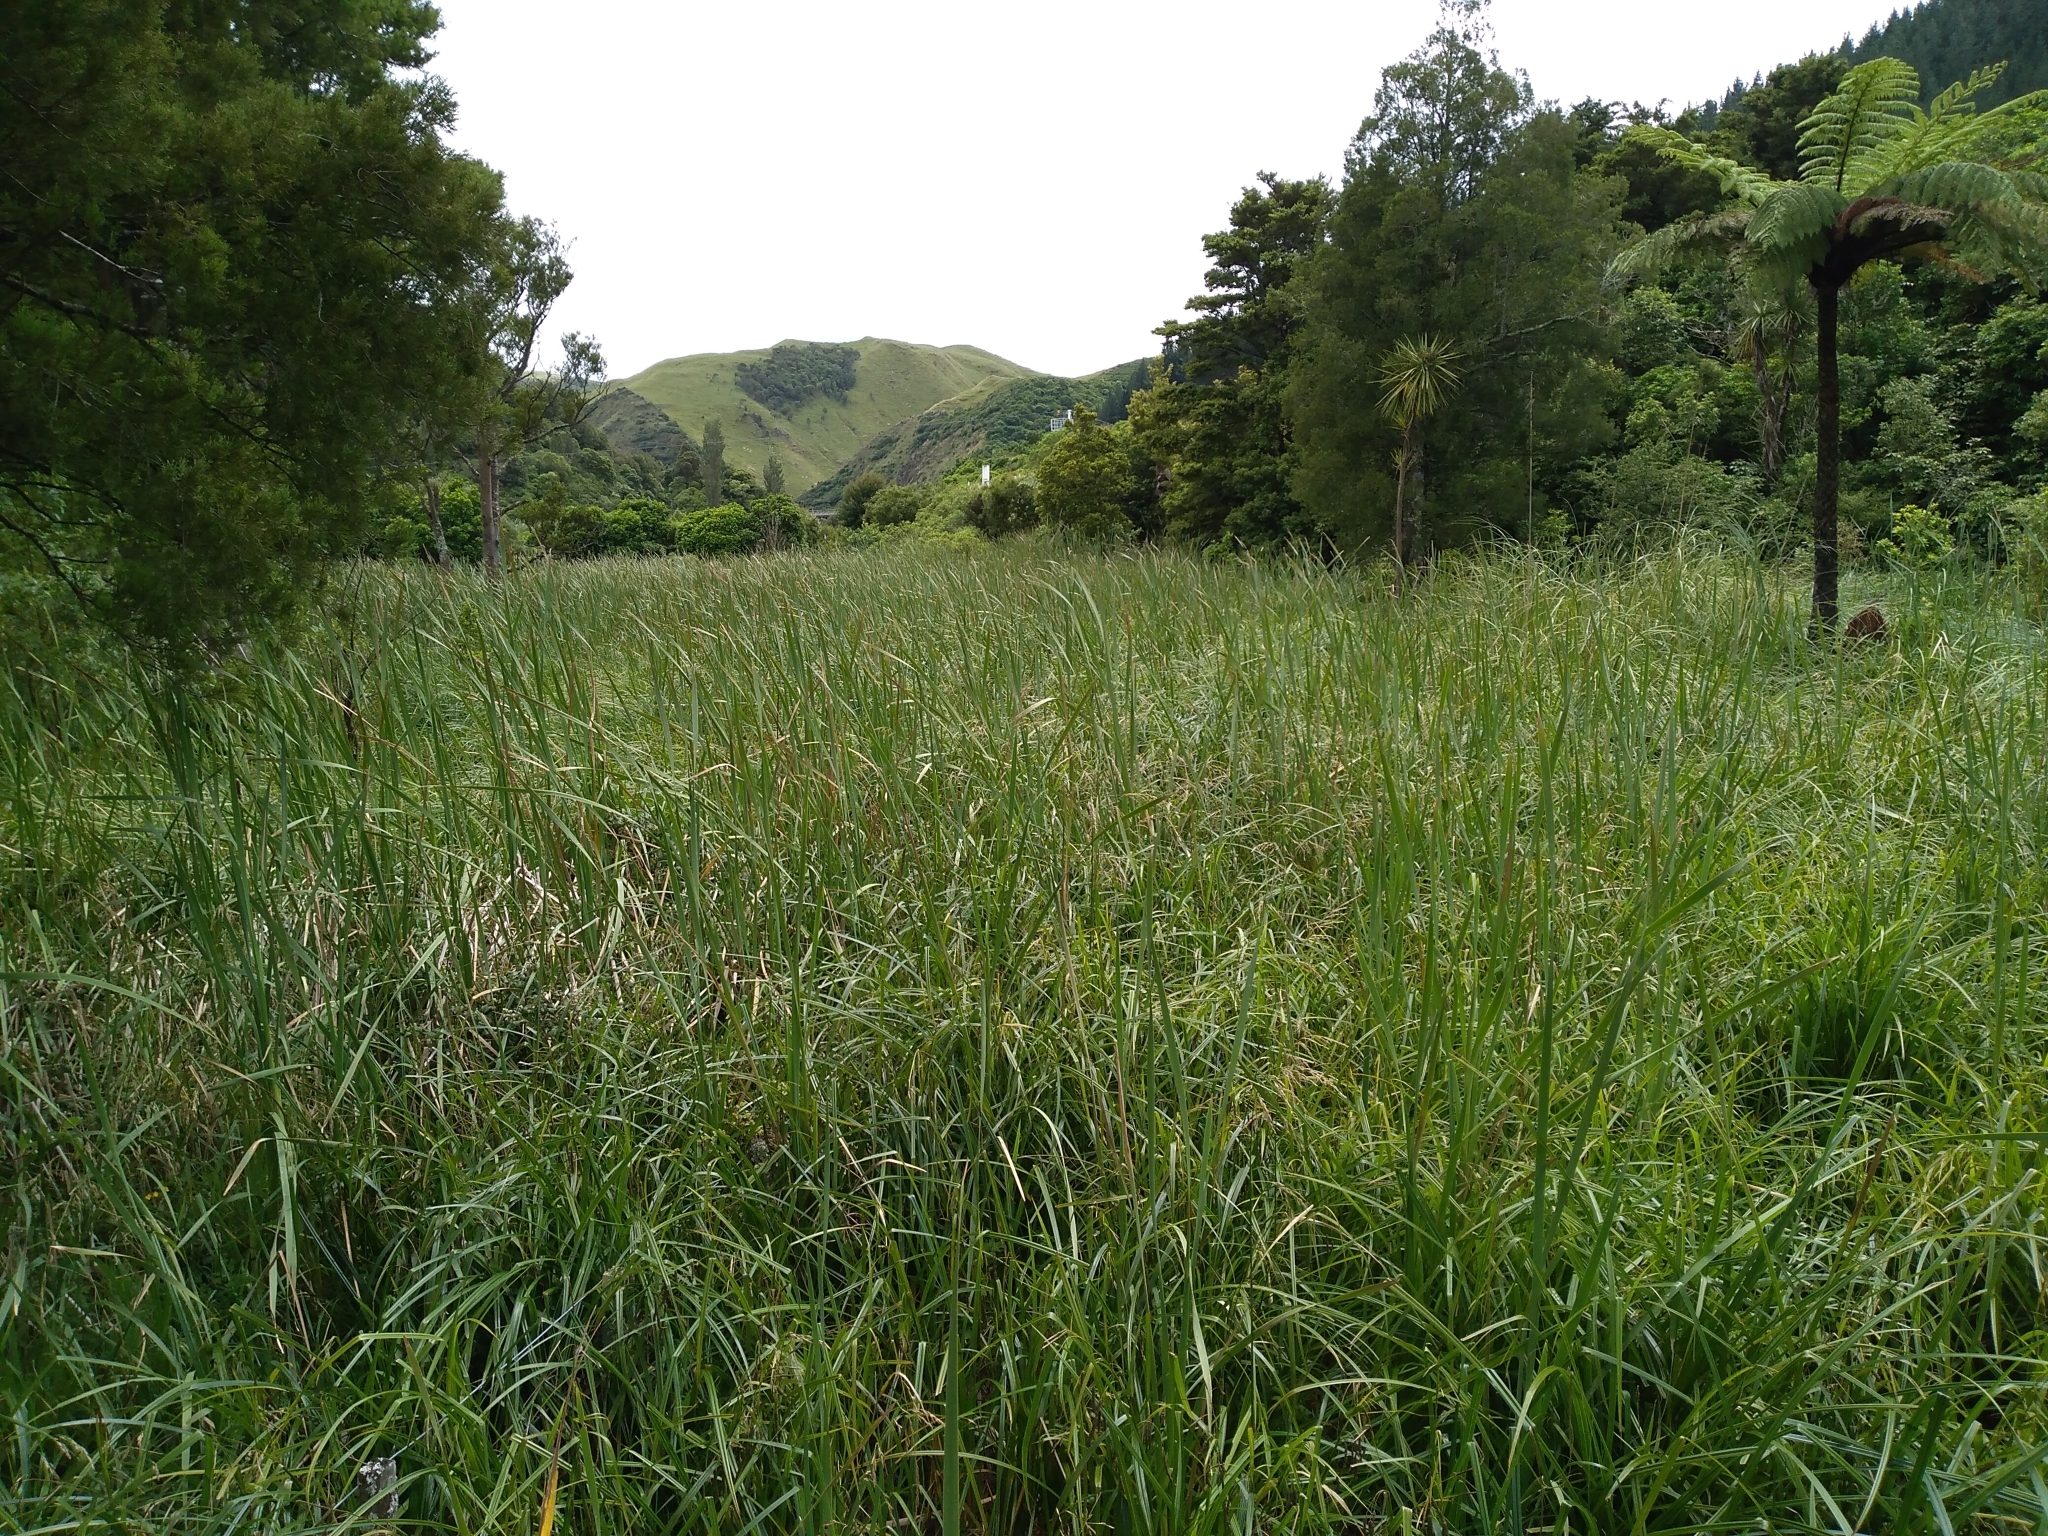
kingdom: Plantae
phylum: Tracheophyta
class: Liliopsida
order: Poales
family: Typhaceae
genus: Typha
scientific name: Typha orientalis
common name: Bullrush
